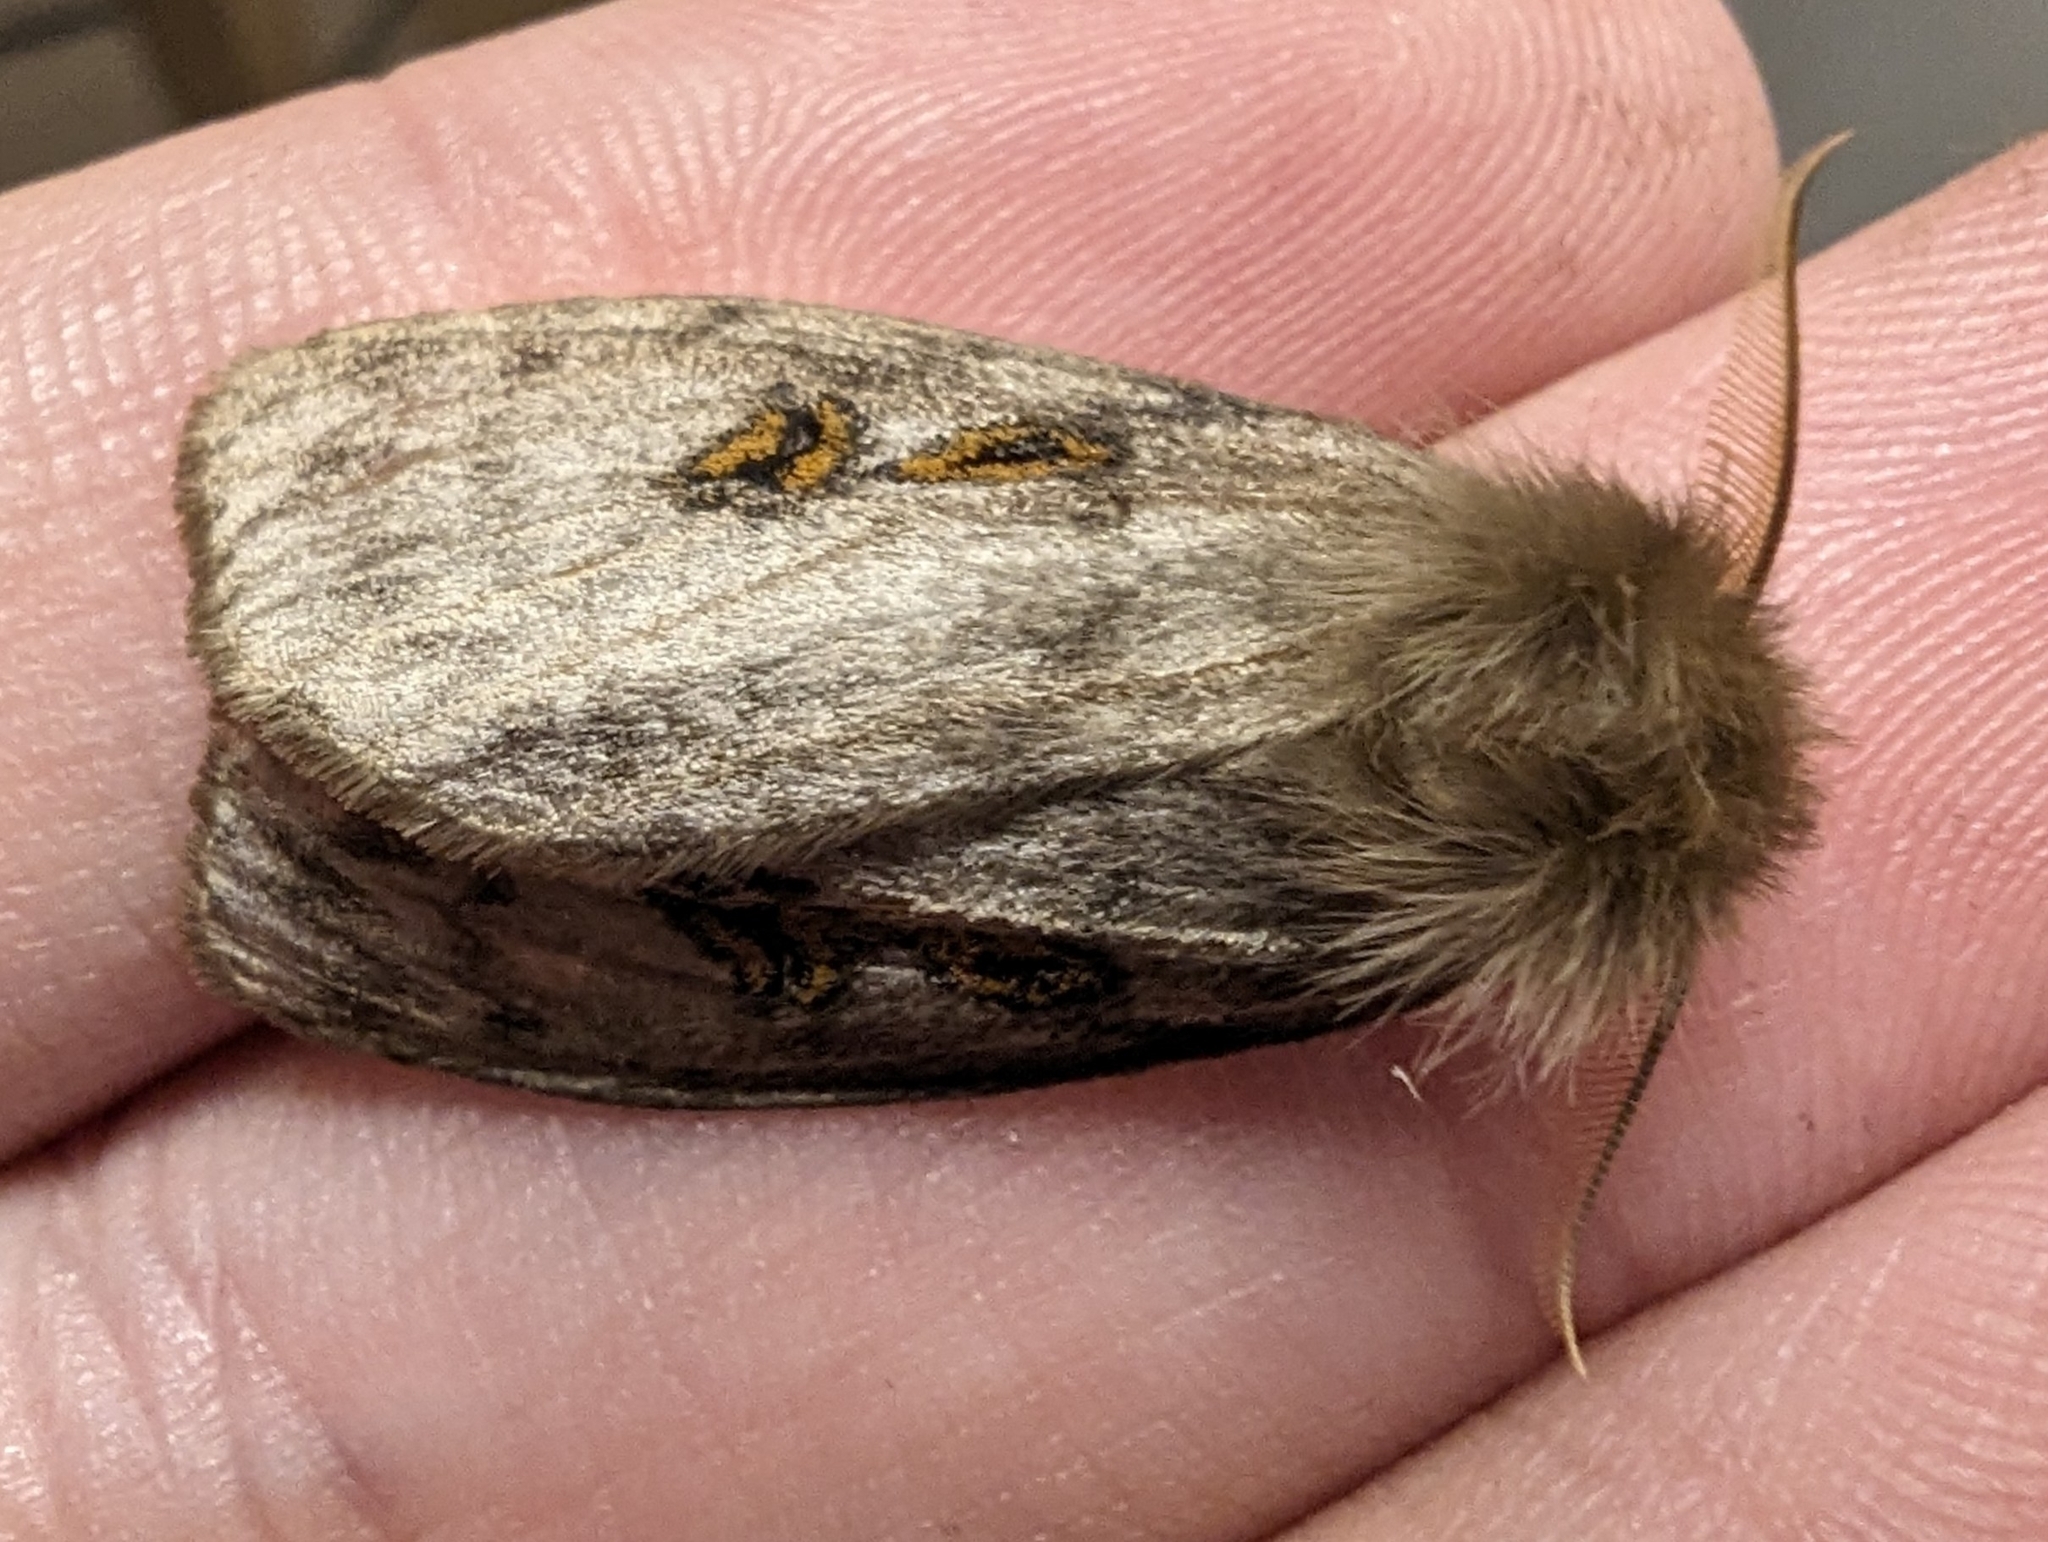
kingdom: Animalia
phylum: Arthropoda
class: Insecta
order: Lepidoptera
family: Erebidae
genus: Leptocneria
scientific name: Leptocneria reducta
